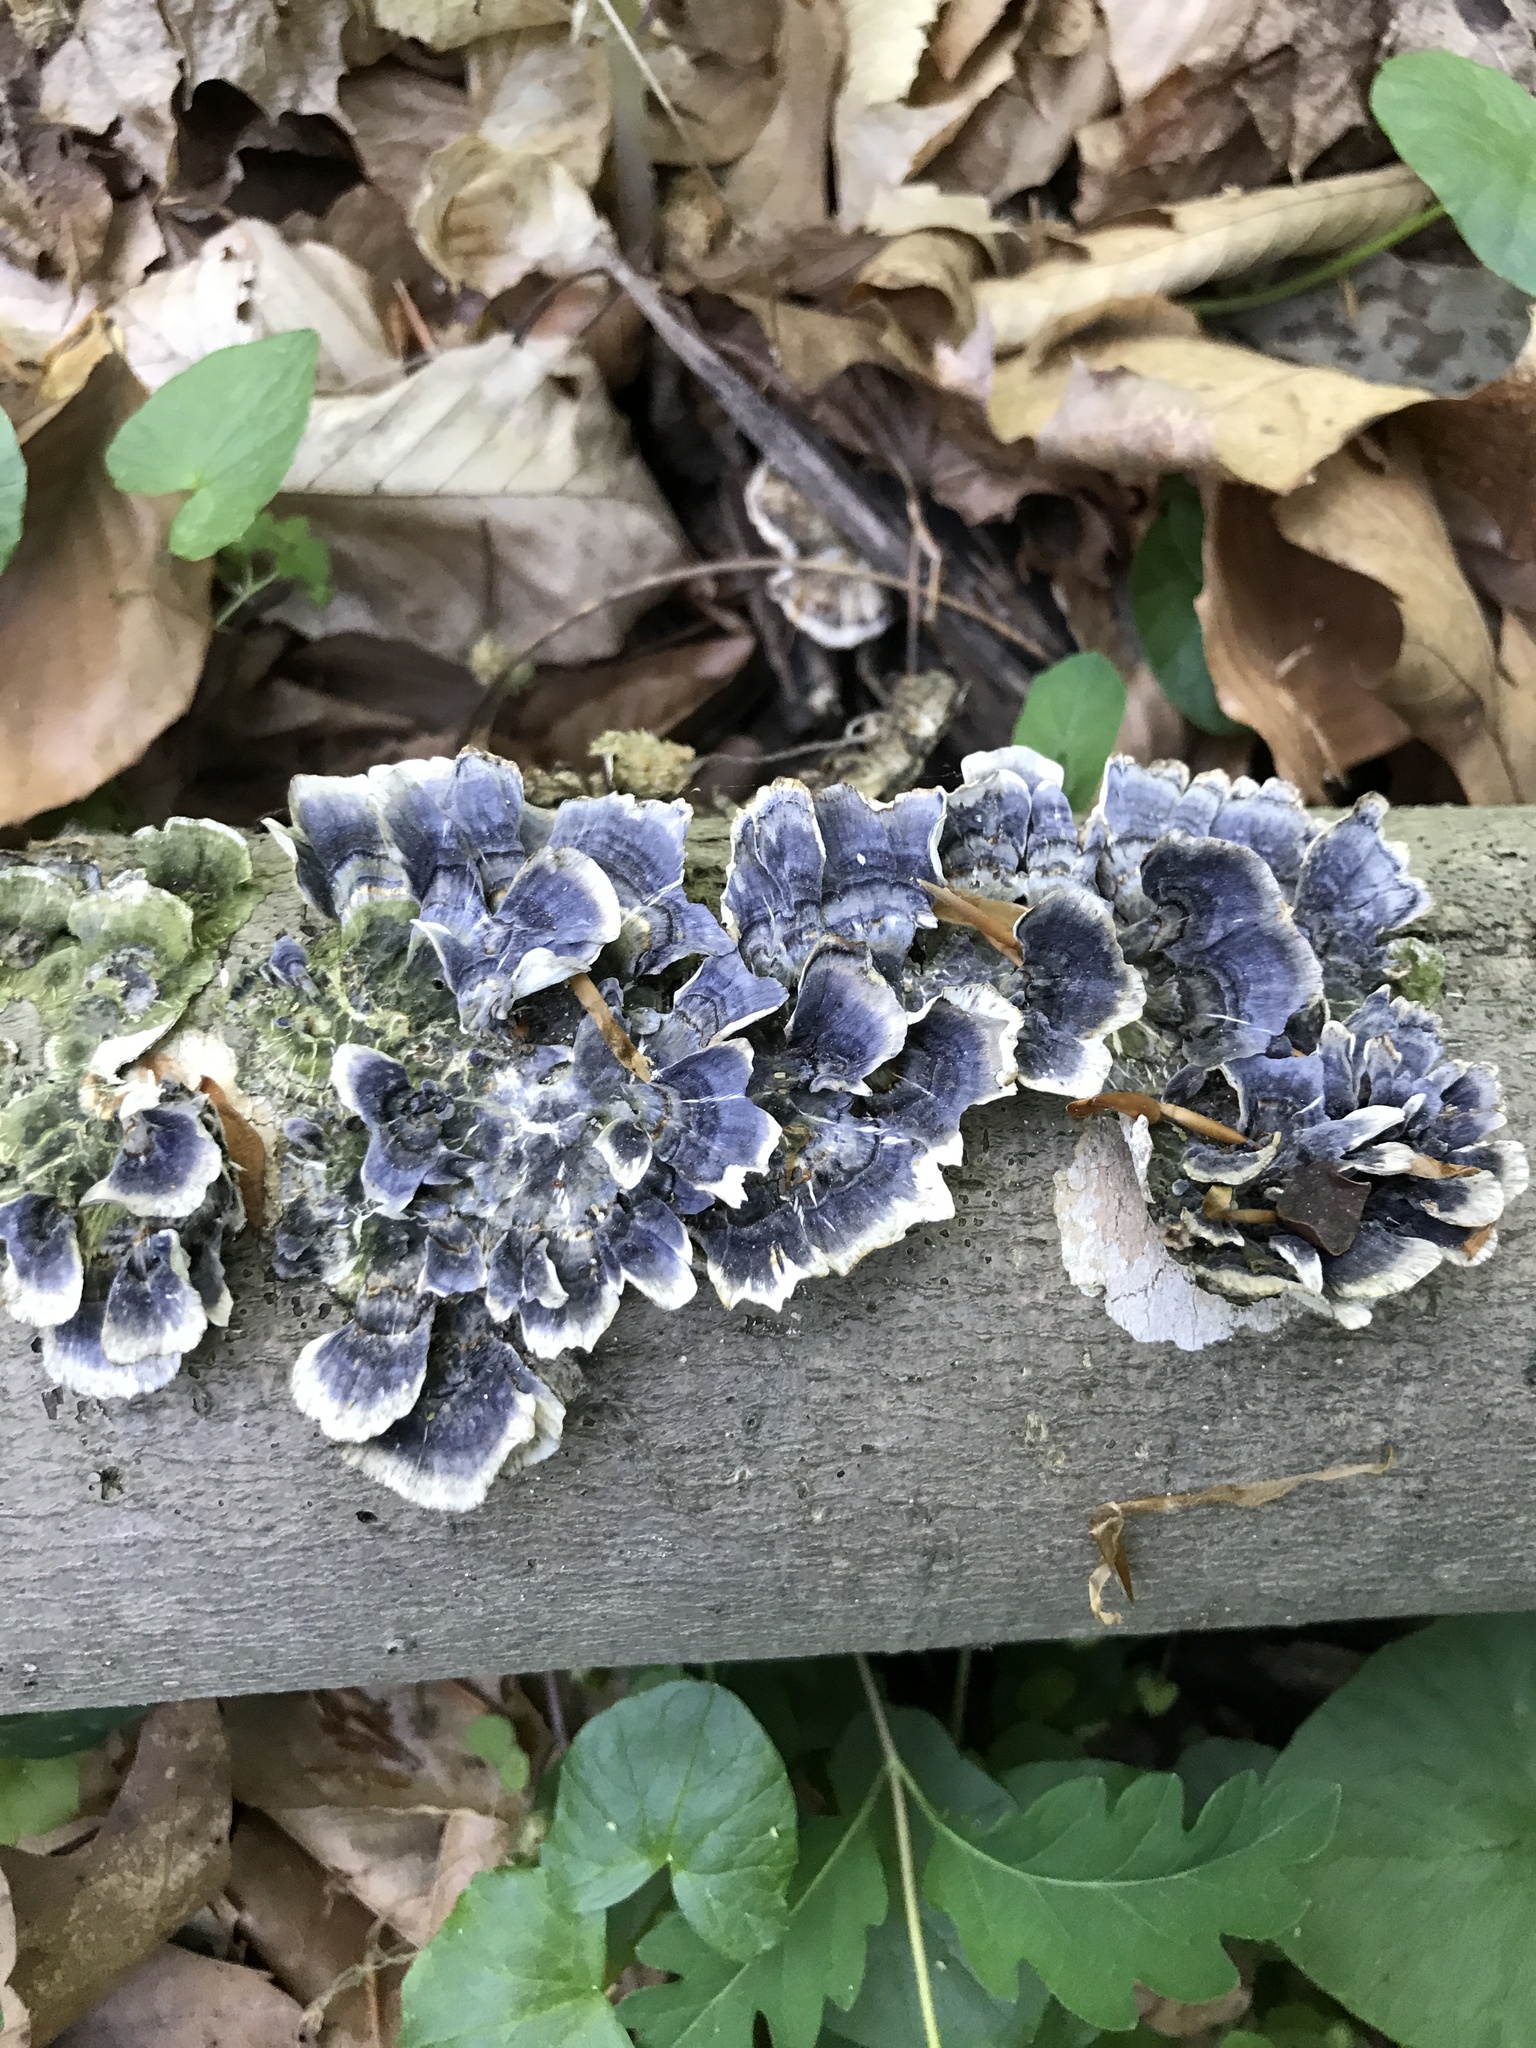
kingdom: Fungi
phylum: Basidiomycota
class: Agaricomycetes
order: Polyporales
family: Polyporaceae
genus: Trametes
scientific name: Trametes versicolor
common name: Turkeytail
